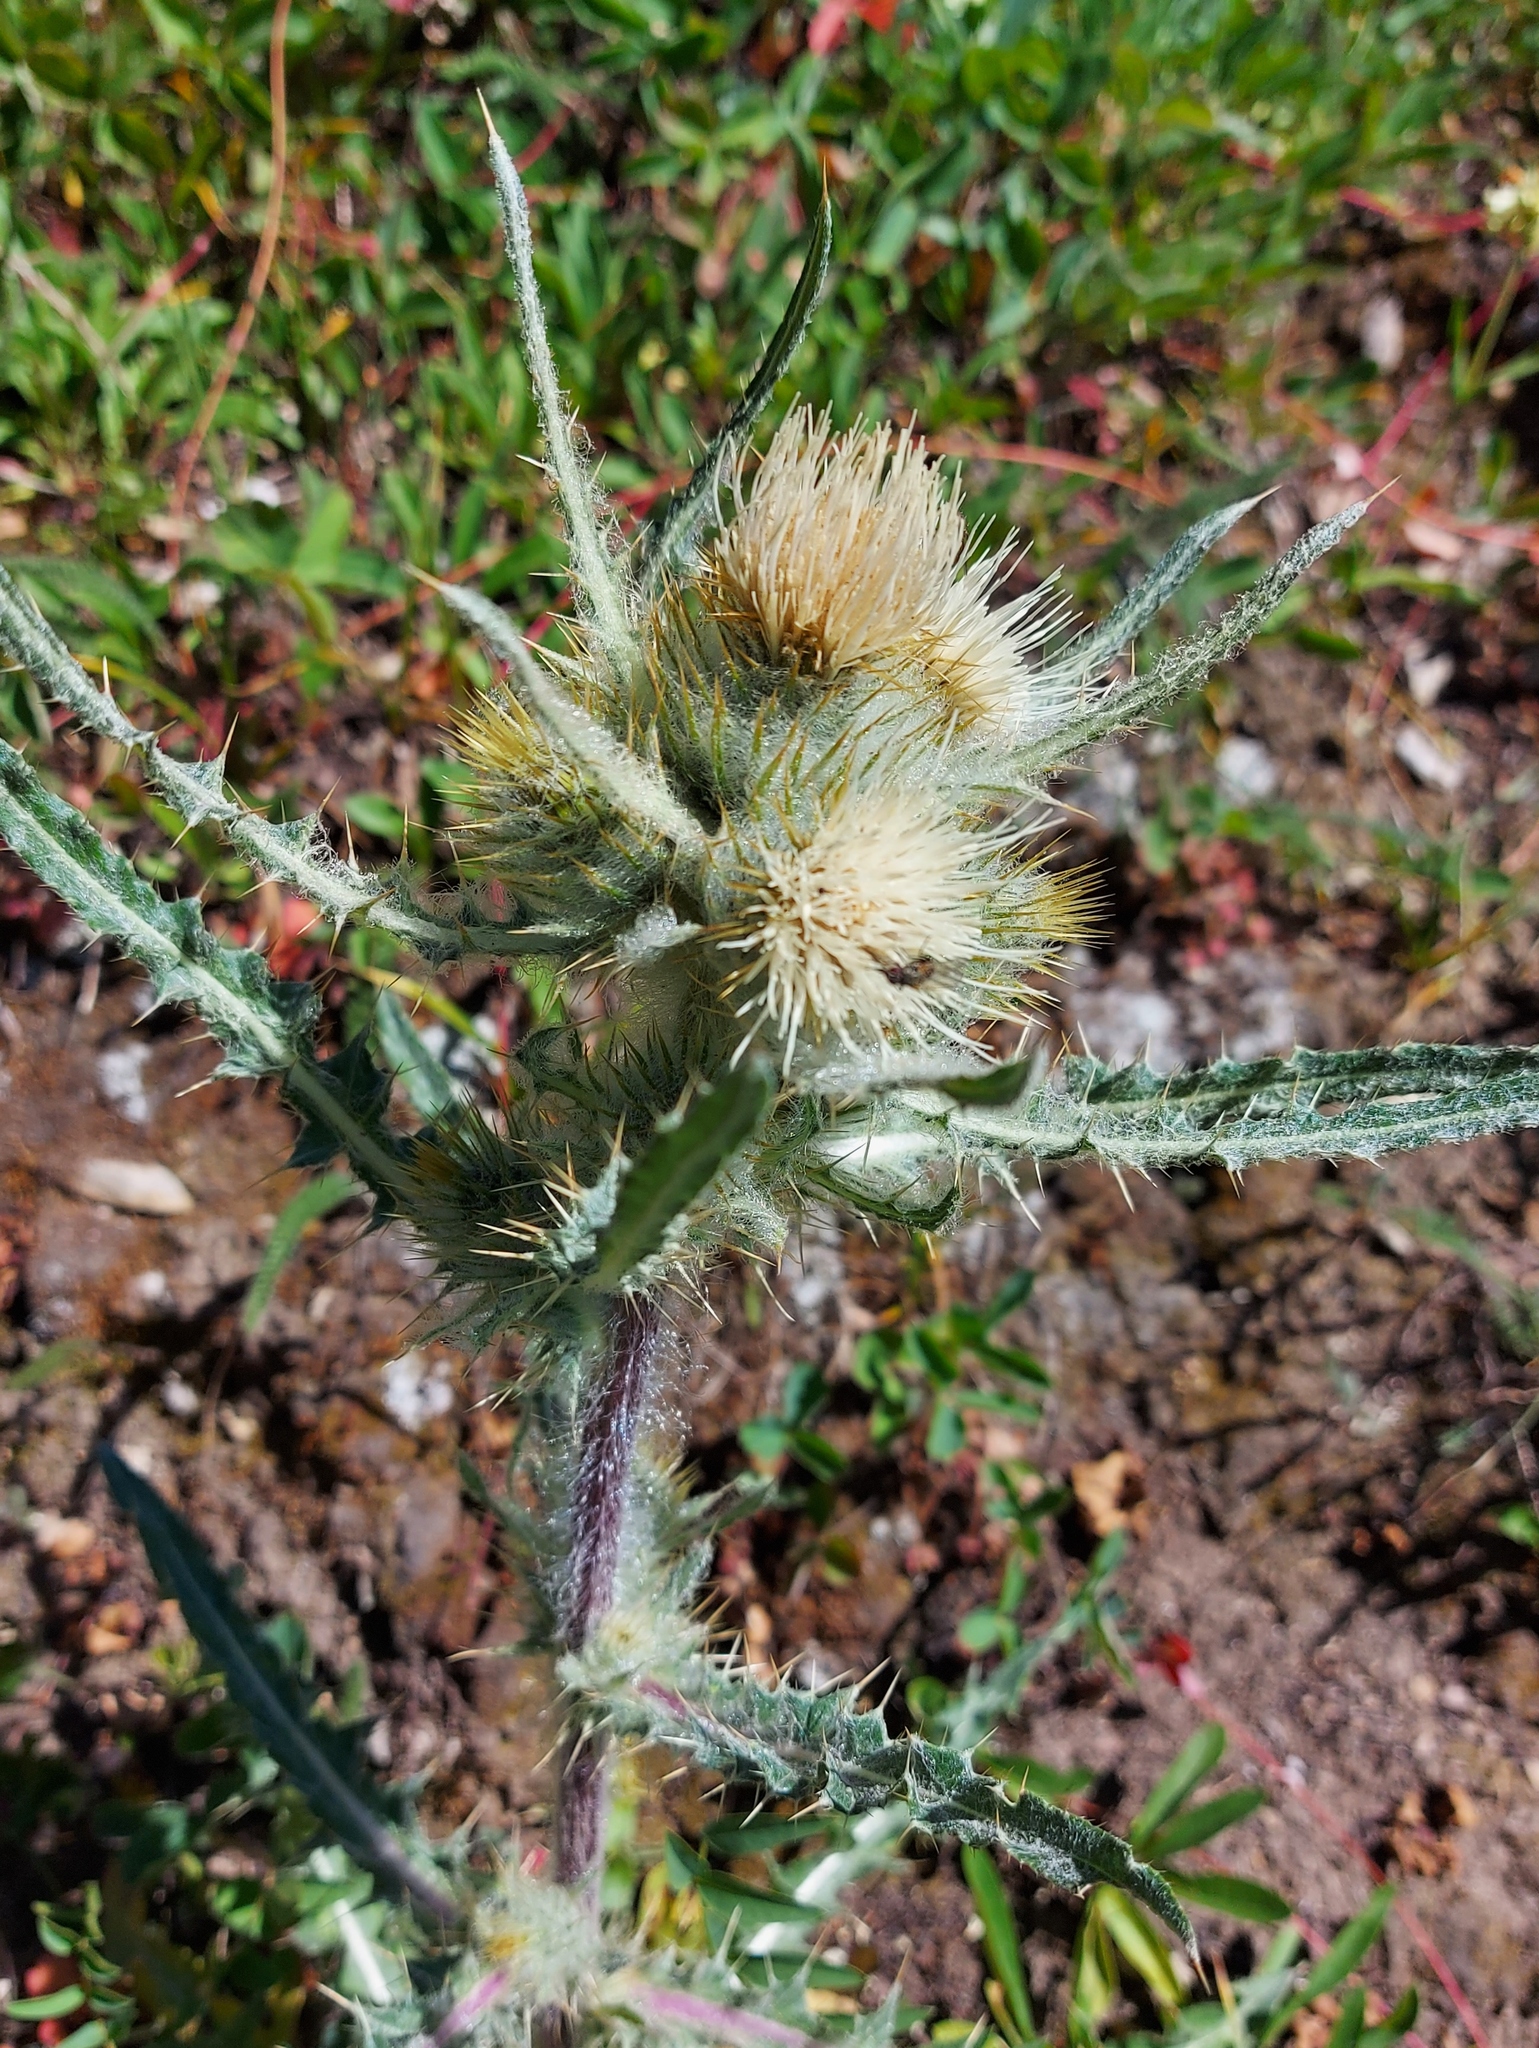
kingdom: Plantae
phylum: Tracheophyta
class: Magnoliopsida
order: Asterales
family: Asteraceae
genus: Cirsium
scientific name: Cirsium hookerianum
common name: Hooker's thistle
